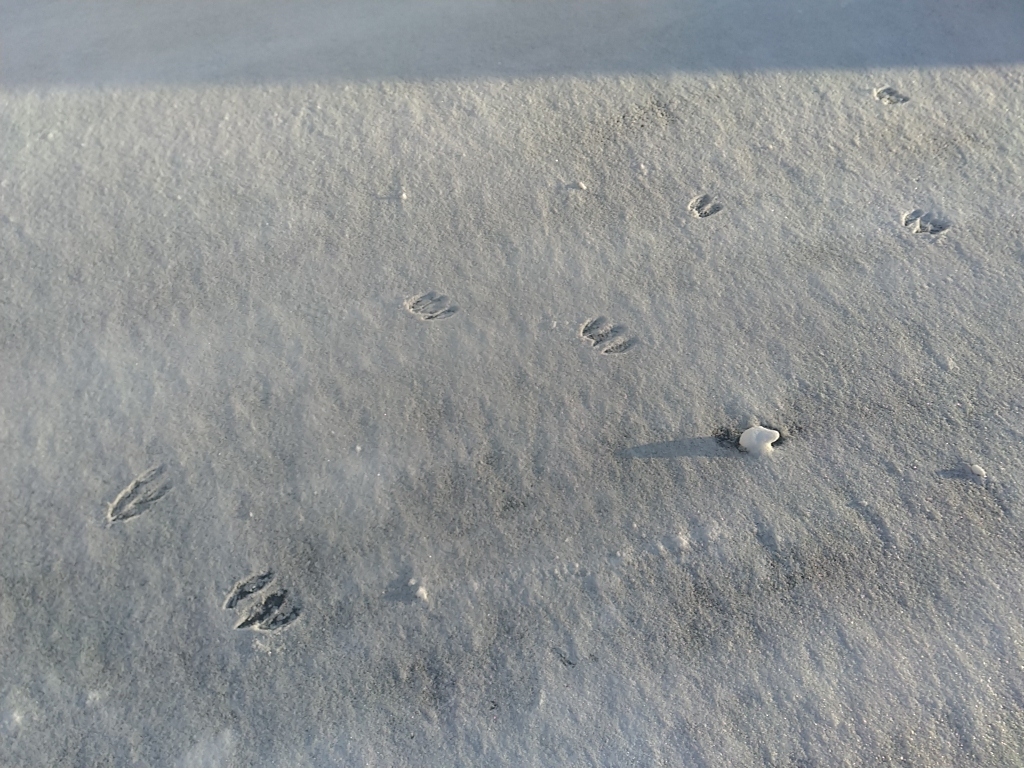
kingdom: Animalia
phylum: Chordata
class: Mammalia
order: Artiodactyla
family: Cervidae
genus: Odocoileus
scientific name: Odocoileus virginianus
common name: White-tailed deer
